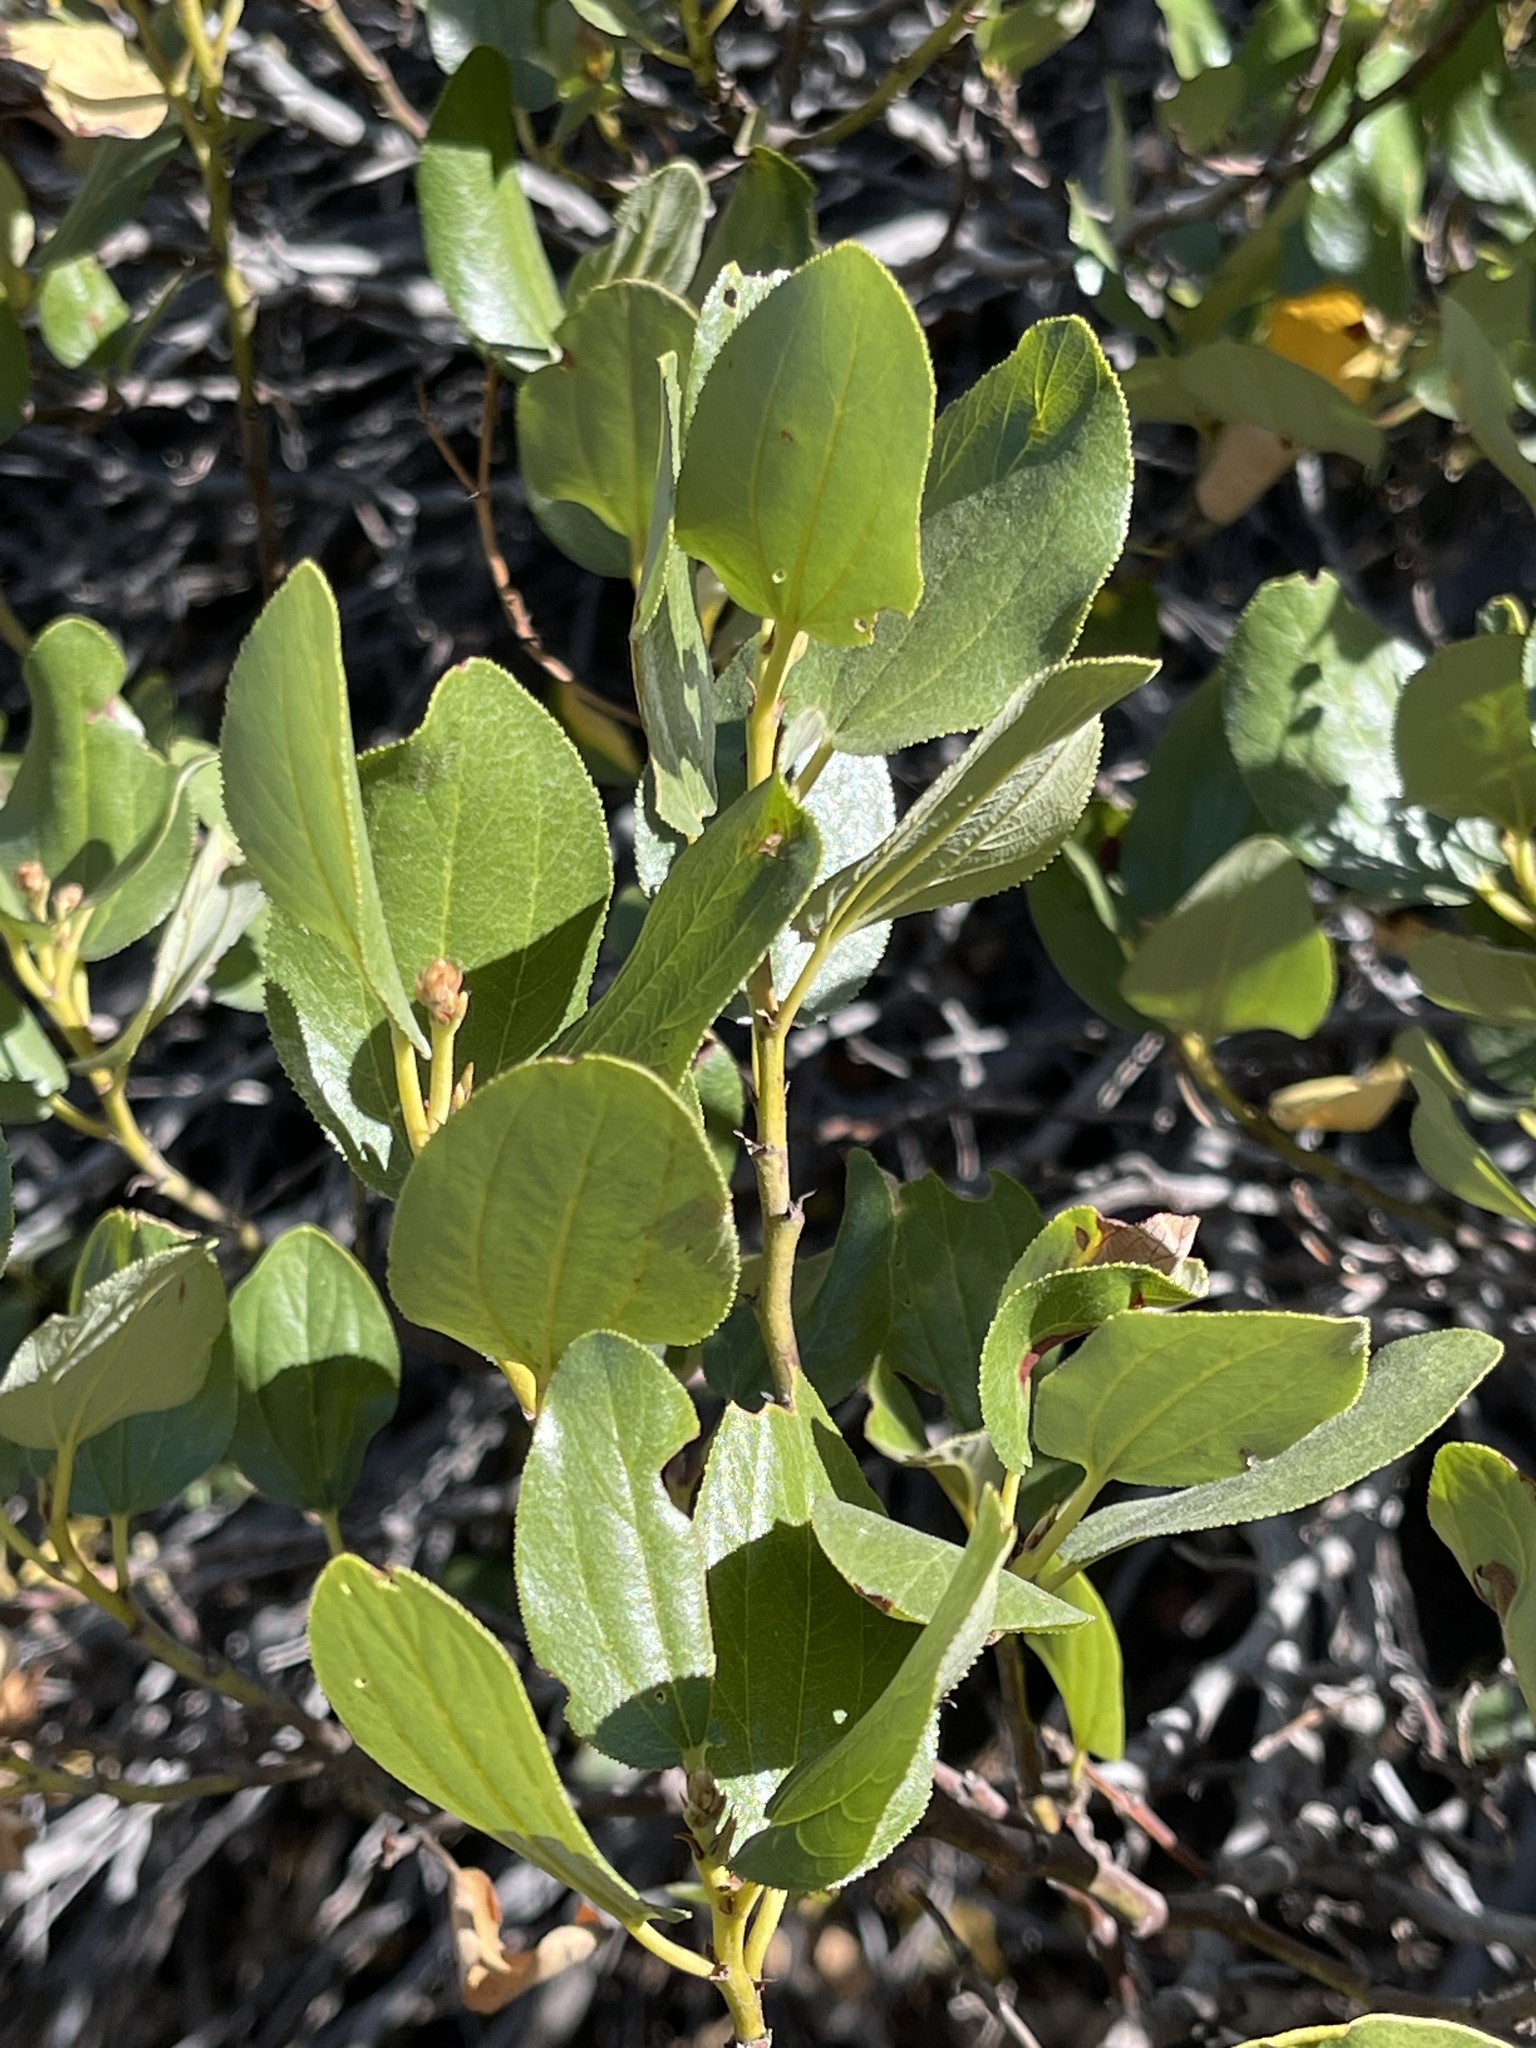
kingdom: Plantae
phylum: Tracheophyta
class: Magnoliopsida
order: Rosales
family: Rhamnaceae
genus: Ceanothus
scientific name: Ceanothus velutinus
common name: Snowbrush
